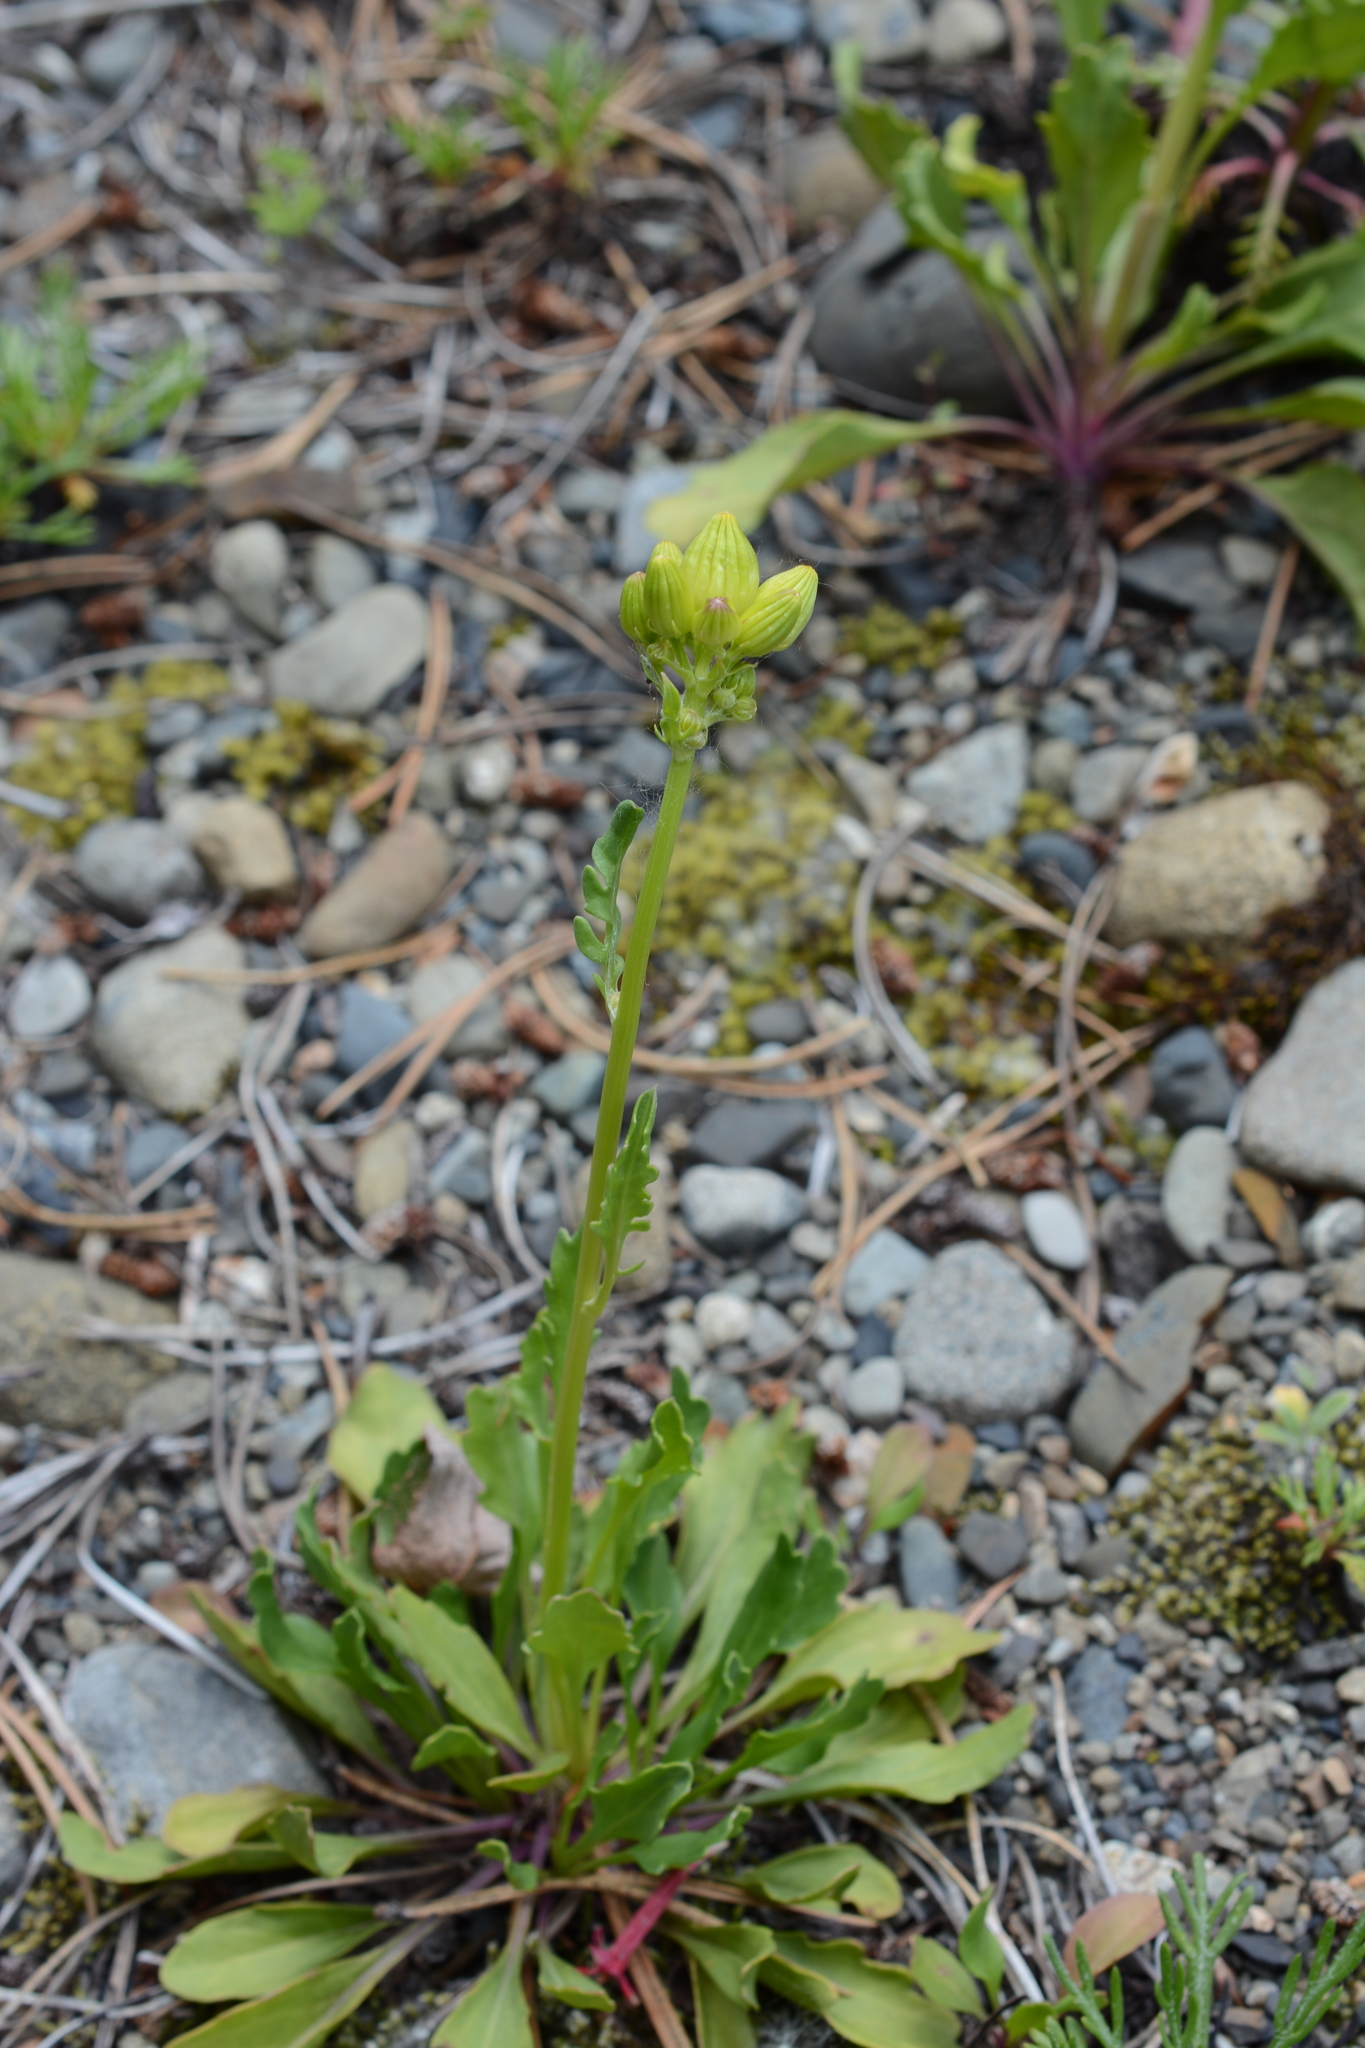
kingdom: Plantae
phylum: Tracheophyta
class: Magnoliopsida
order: Asterales
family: Asteraceae
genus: Packera
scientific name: Packera streptanthifolia
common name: Rocky mountain butterweed
